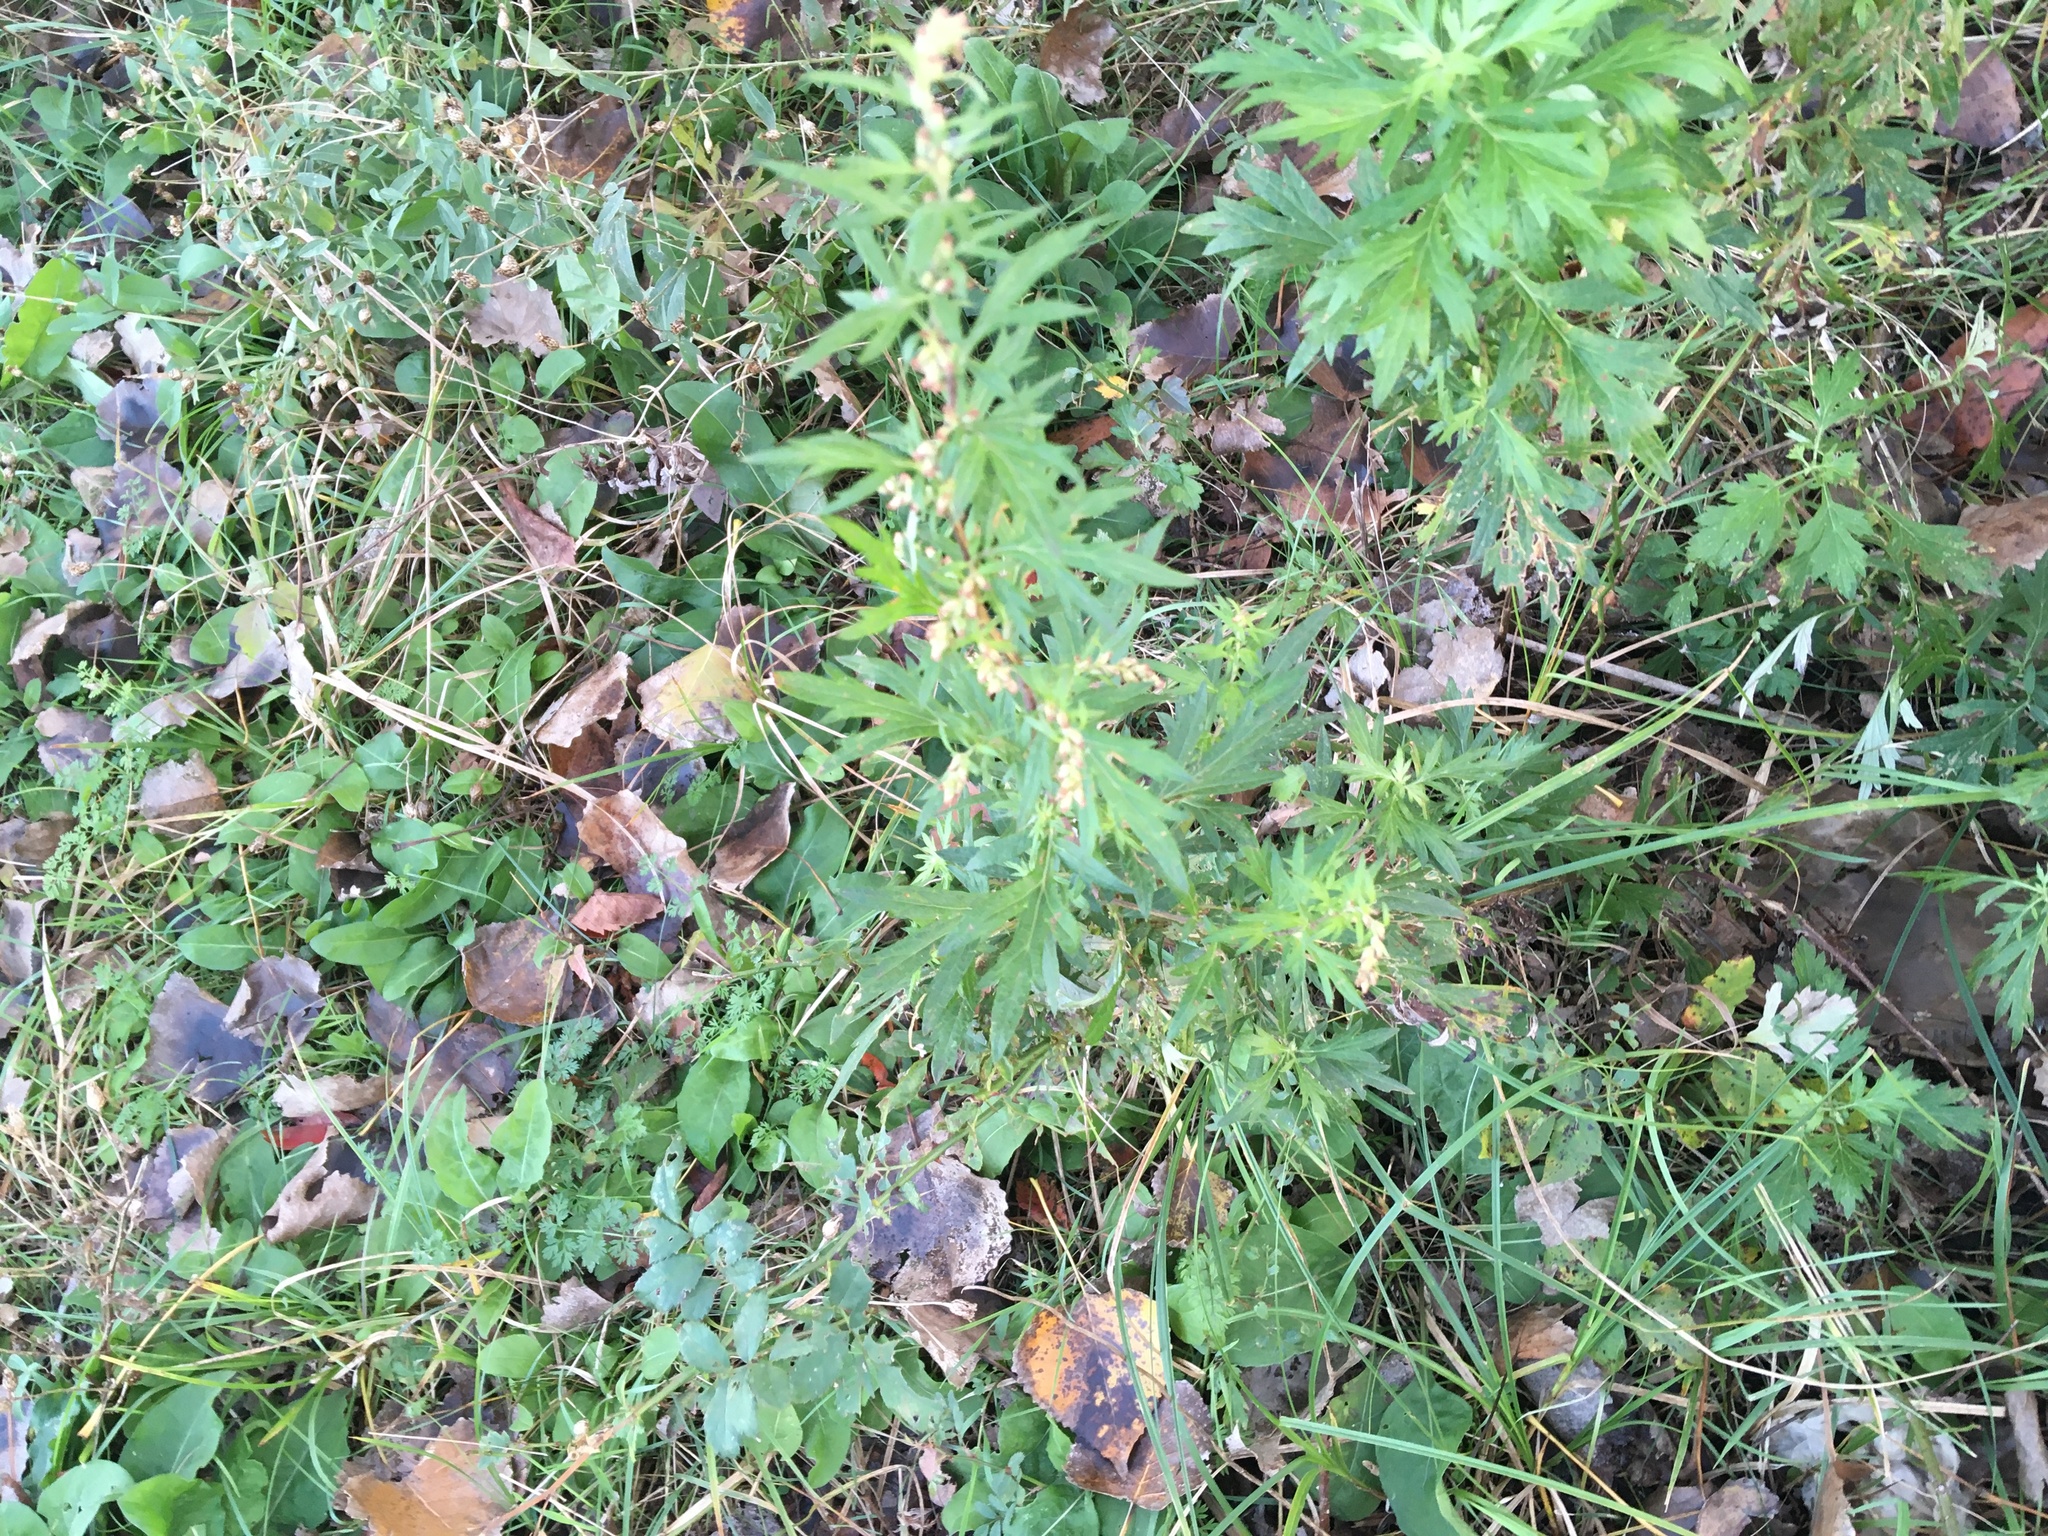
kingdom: Plantae
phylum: Tracheophyta
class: Magnoliopsida
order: Asterales
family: Asteraceae
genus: Artemisia
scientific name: Artemisia vulgaris
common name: Mugwort
